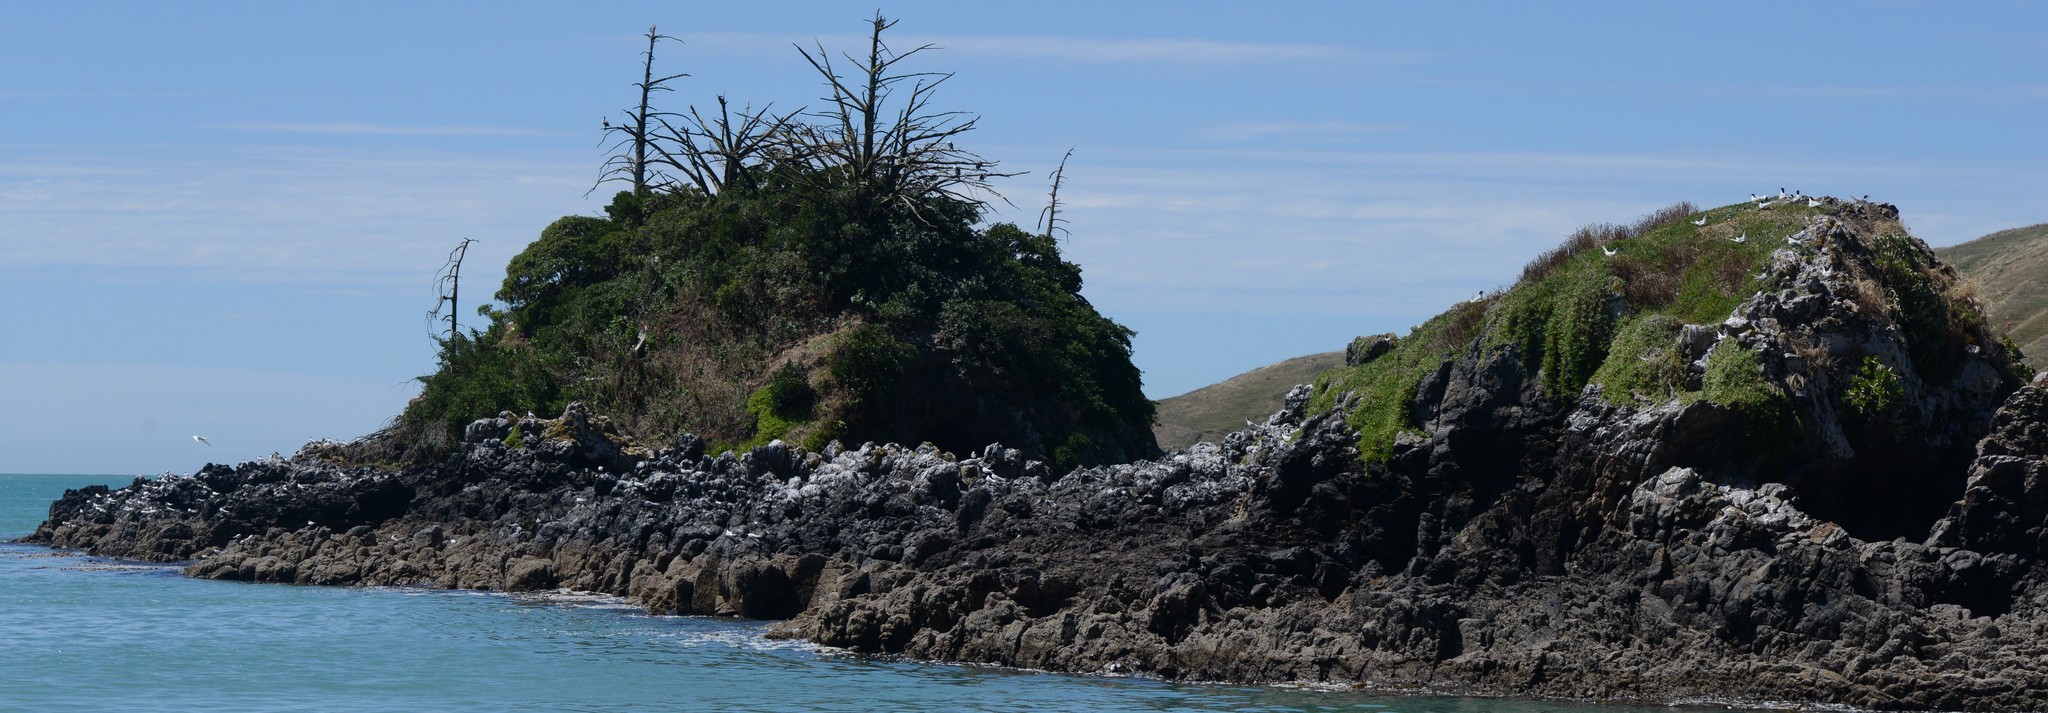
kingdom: Animalia
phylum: Chordata
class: Aves
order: Charadriiformes
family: Laridae
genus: Sterna
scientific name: Sterna striata
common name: White-fronted tern
